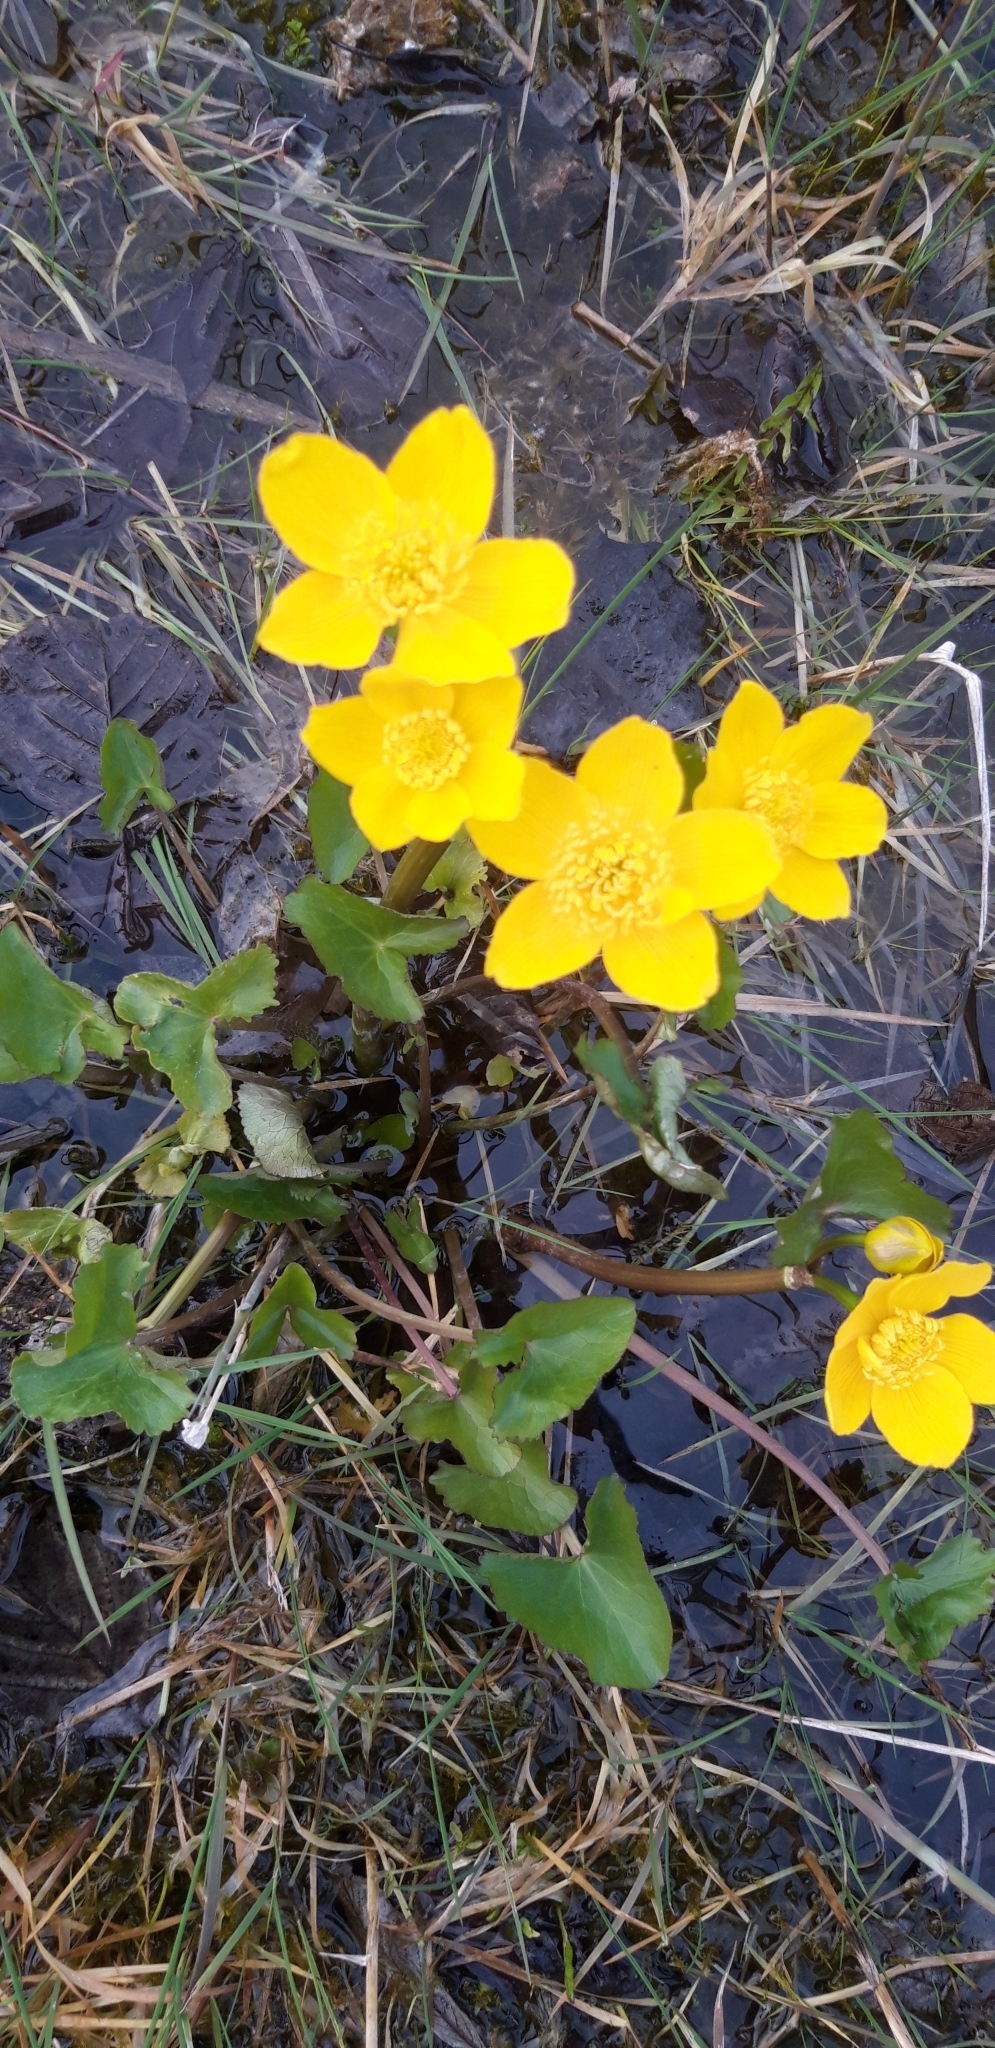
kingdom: Plantae
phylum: Tracheophyta
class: Magnoliopsida
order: Ranunculales
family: Ranunculaceae
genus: Caltha
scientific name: Caltha palustris
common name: Marsh marigold
